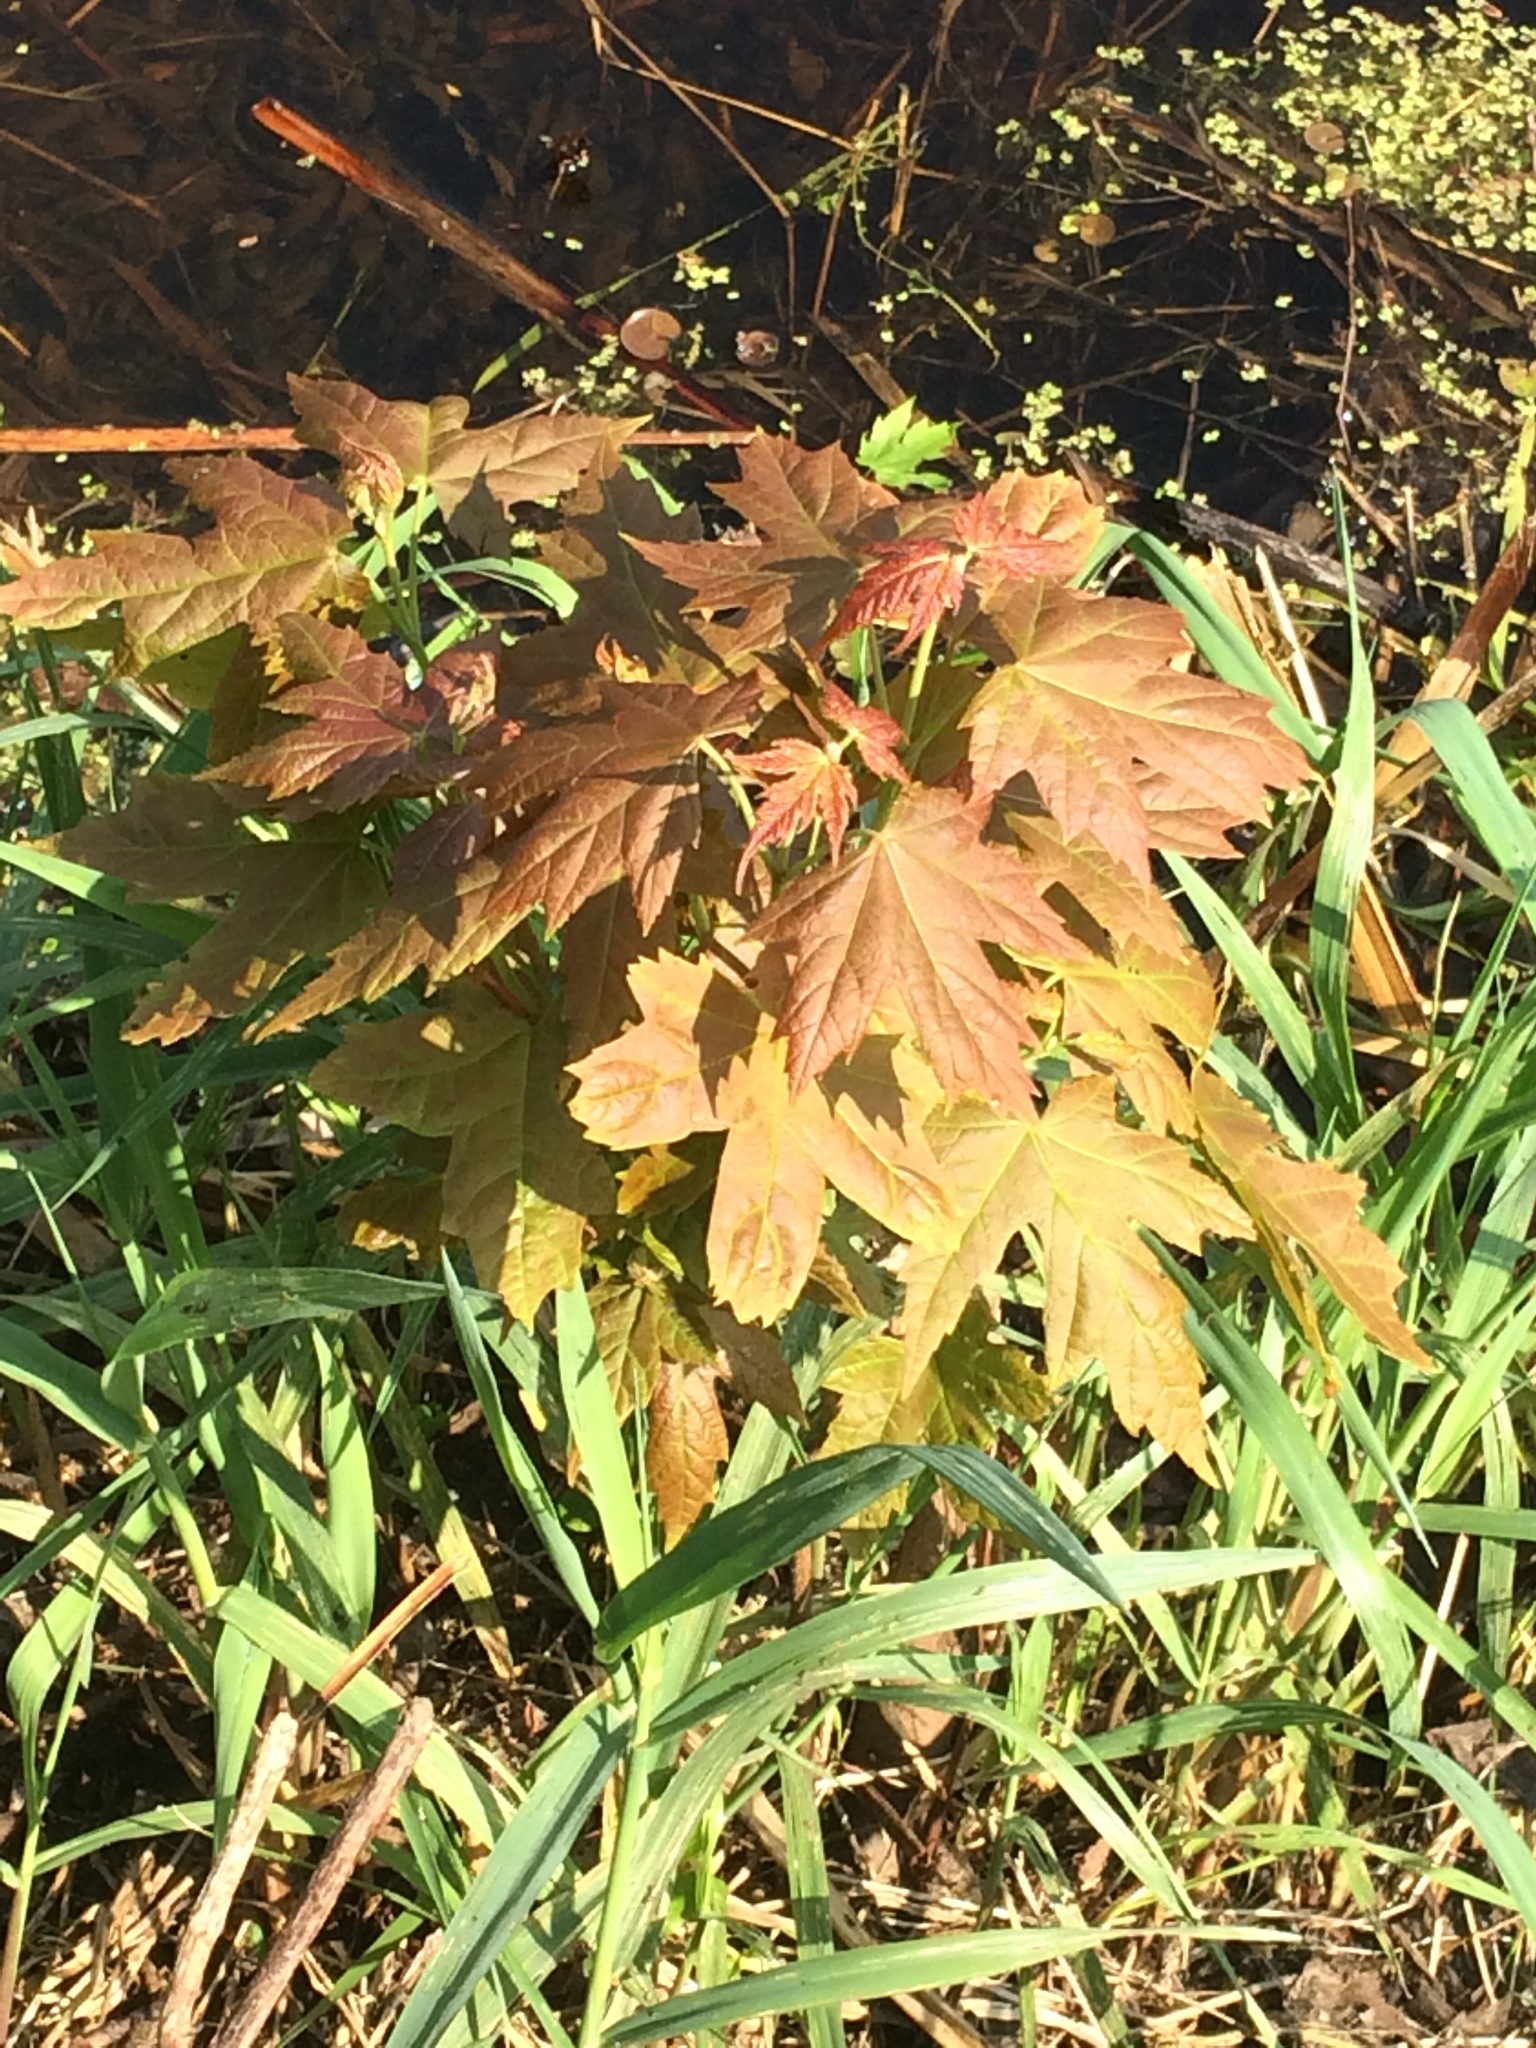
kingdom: Plantae
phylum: Tracheophyta
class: Magnoliopsida
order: Sapindales
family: Sapindaceae
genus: Acer
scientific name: Acer saccharinum
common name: Silver maple
